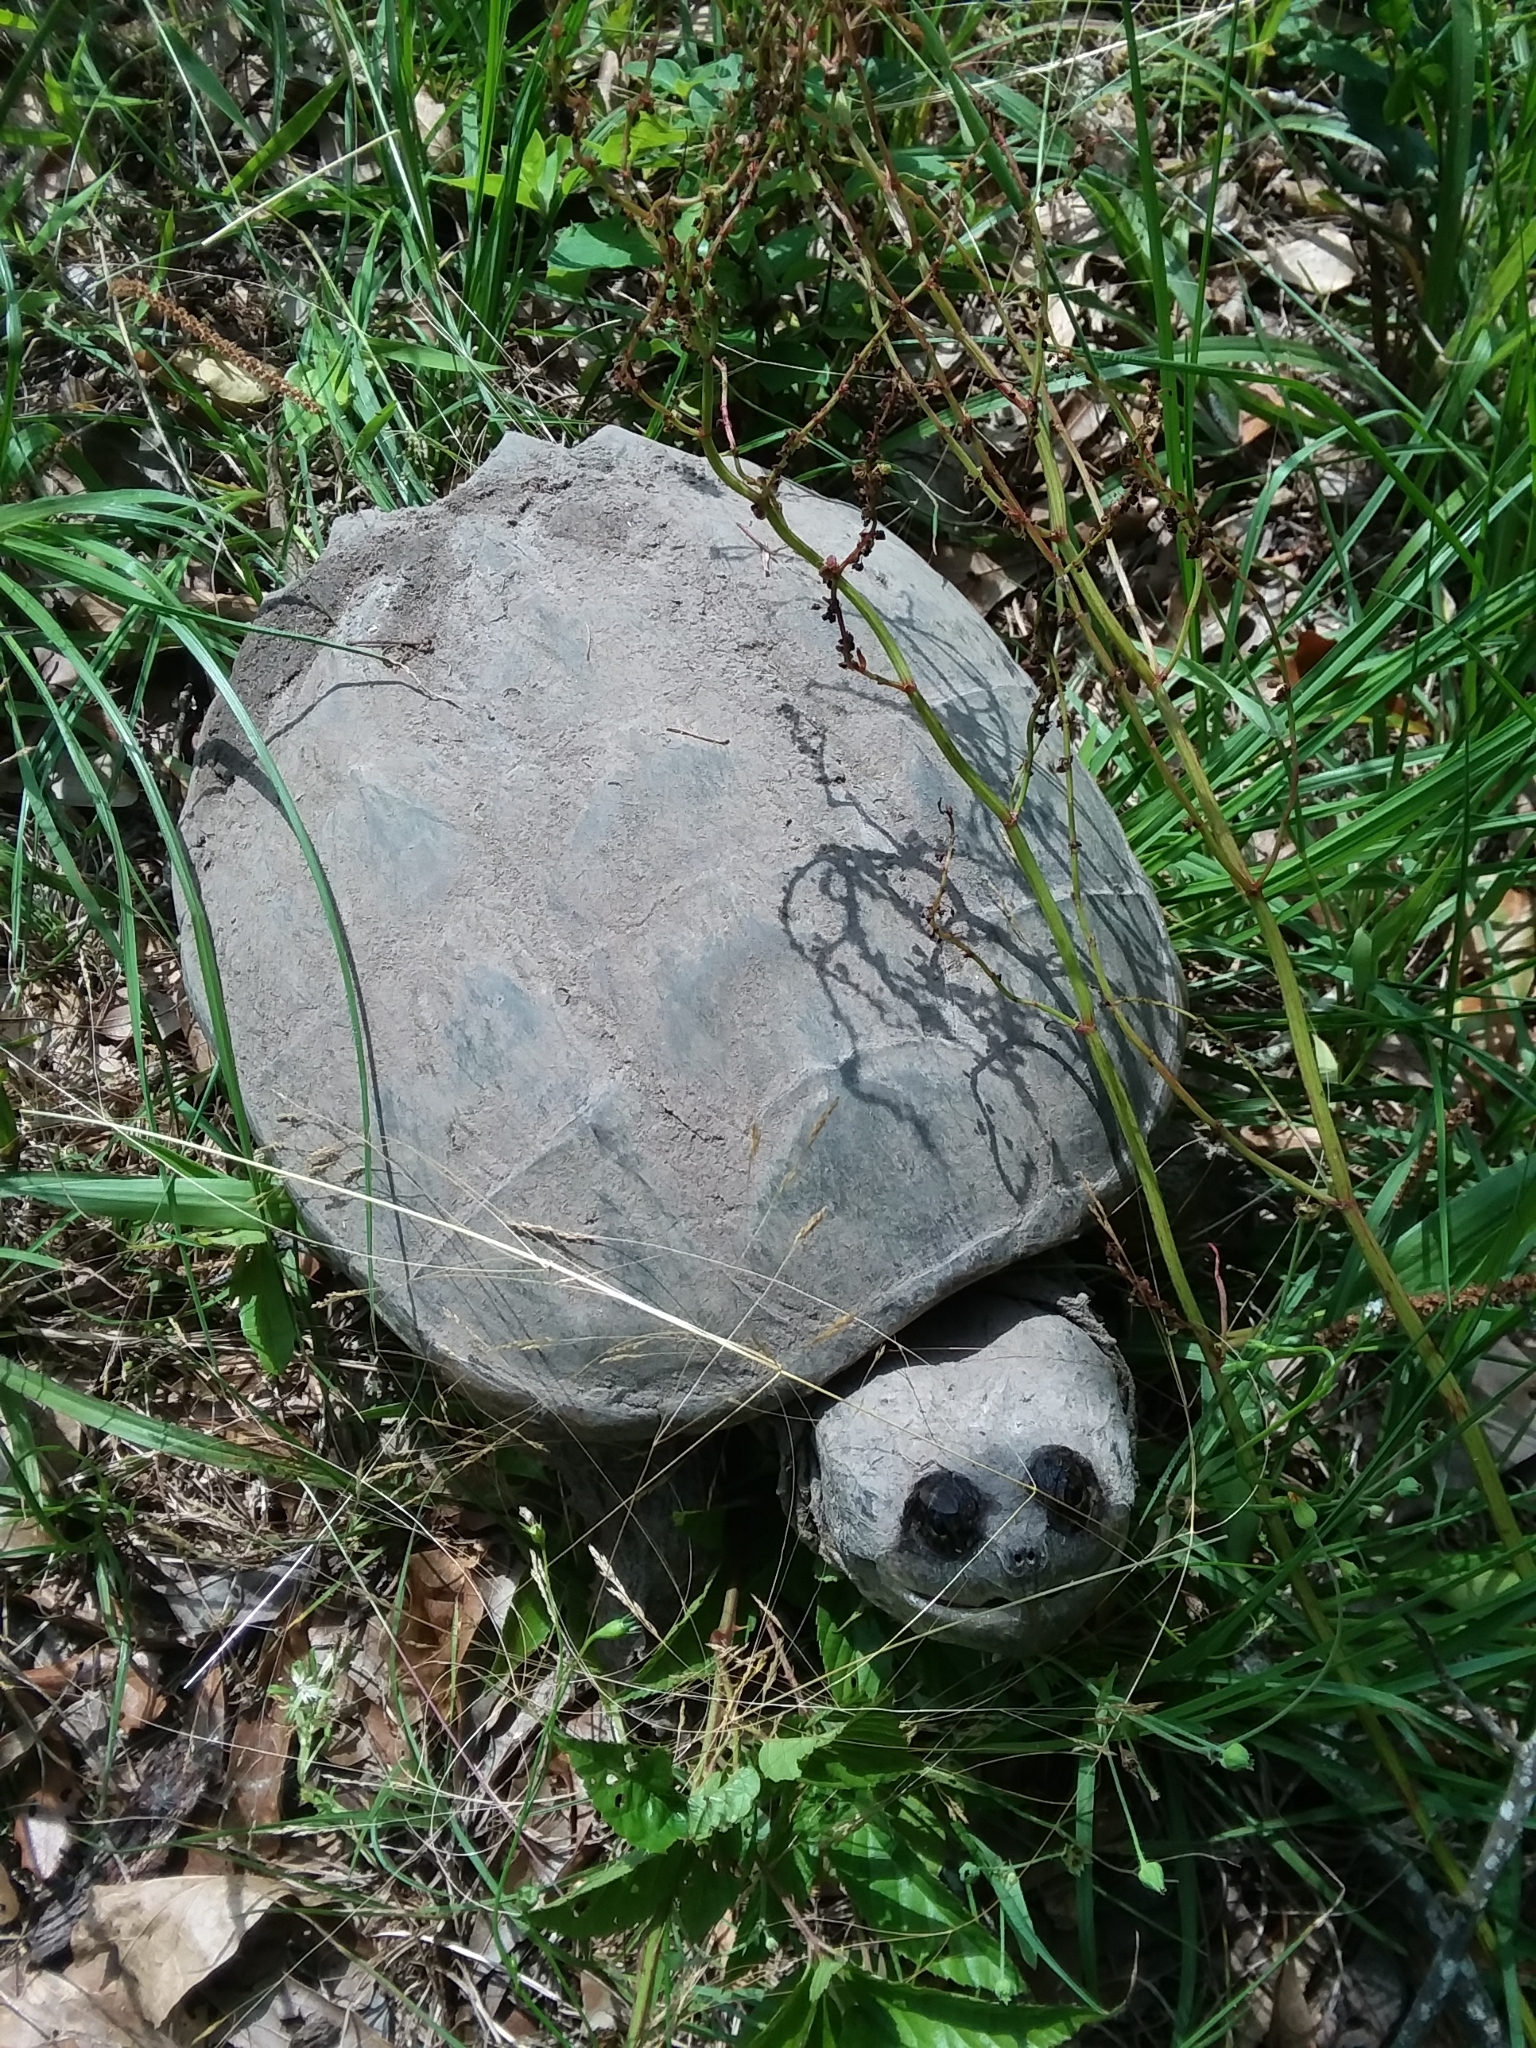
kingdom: Animalia
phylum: Chordata
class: Testudines
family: Chelydridae
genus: Chelydra
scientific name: Chelydra serpentina
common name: Common snapping turtle
